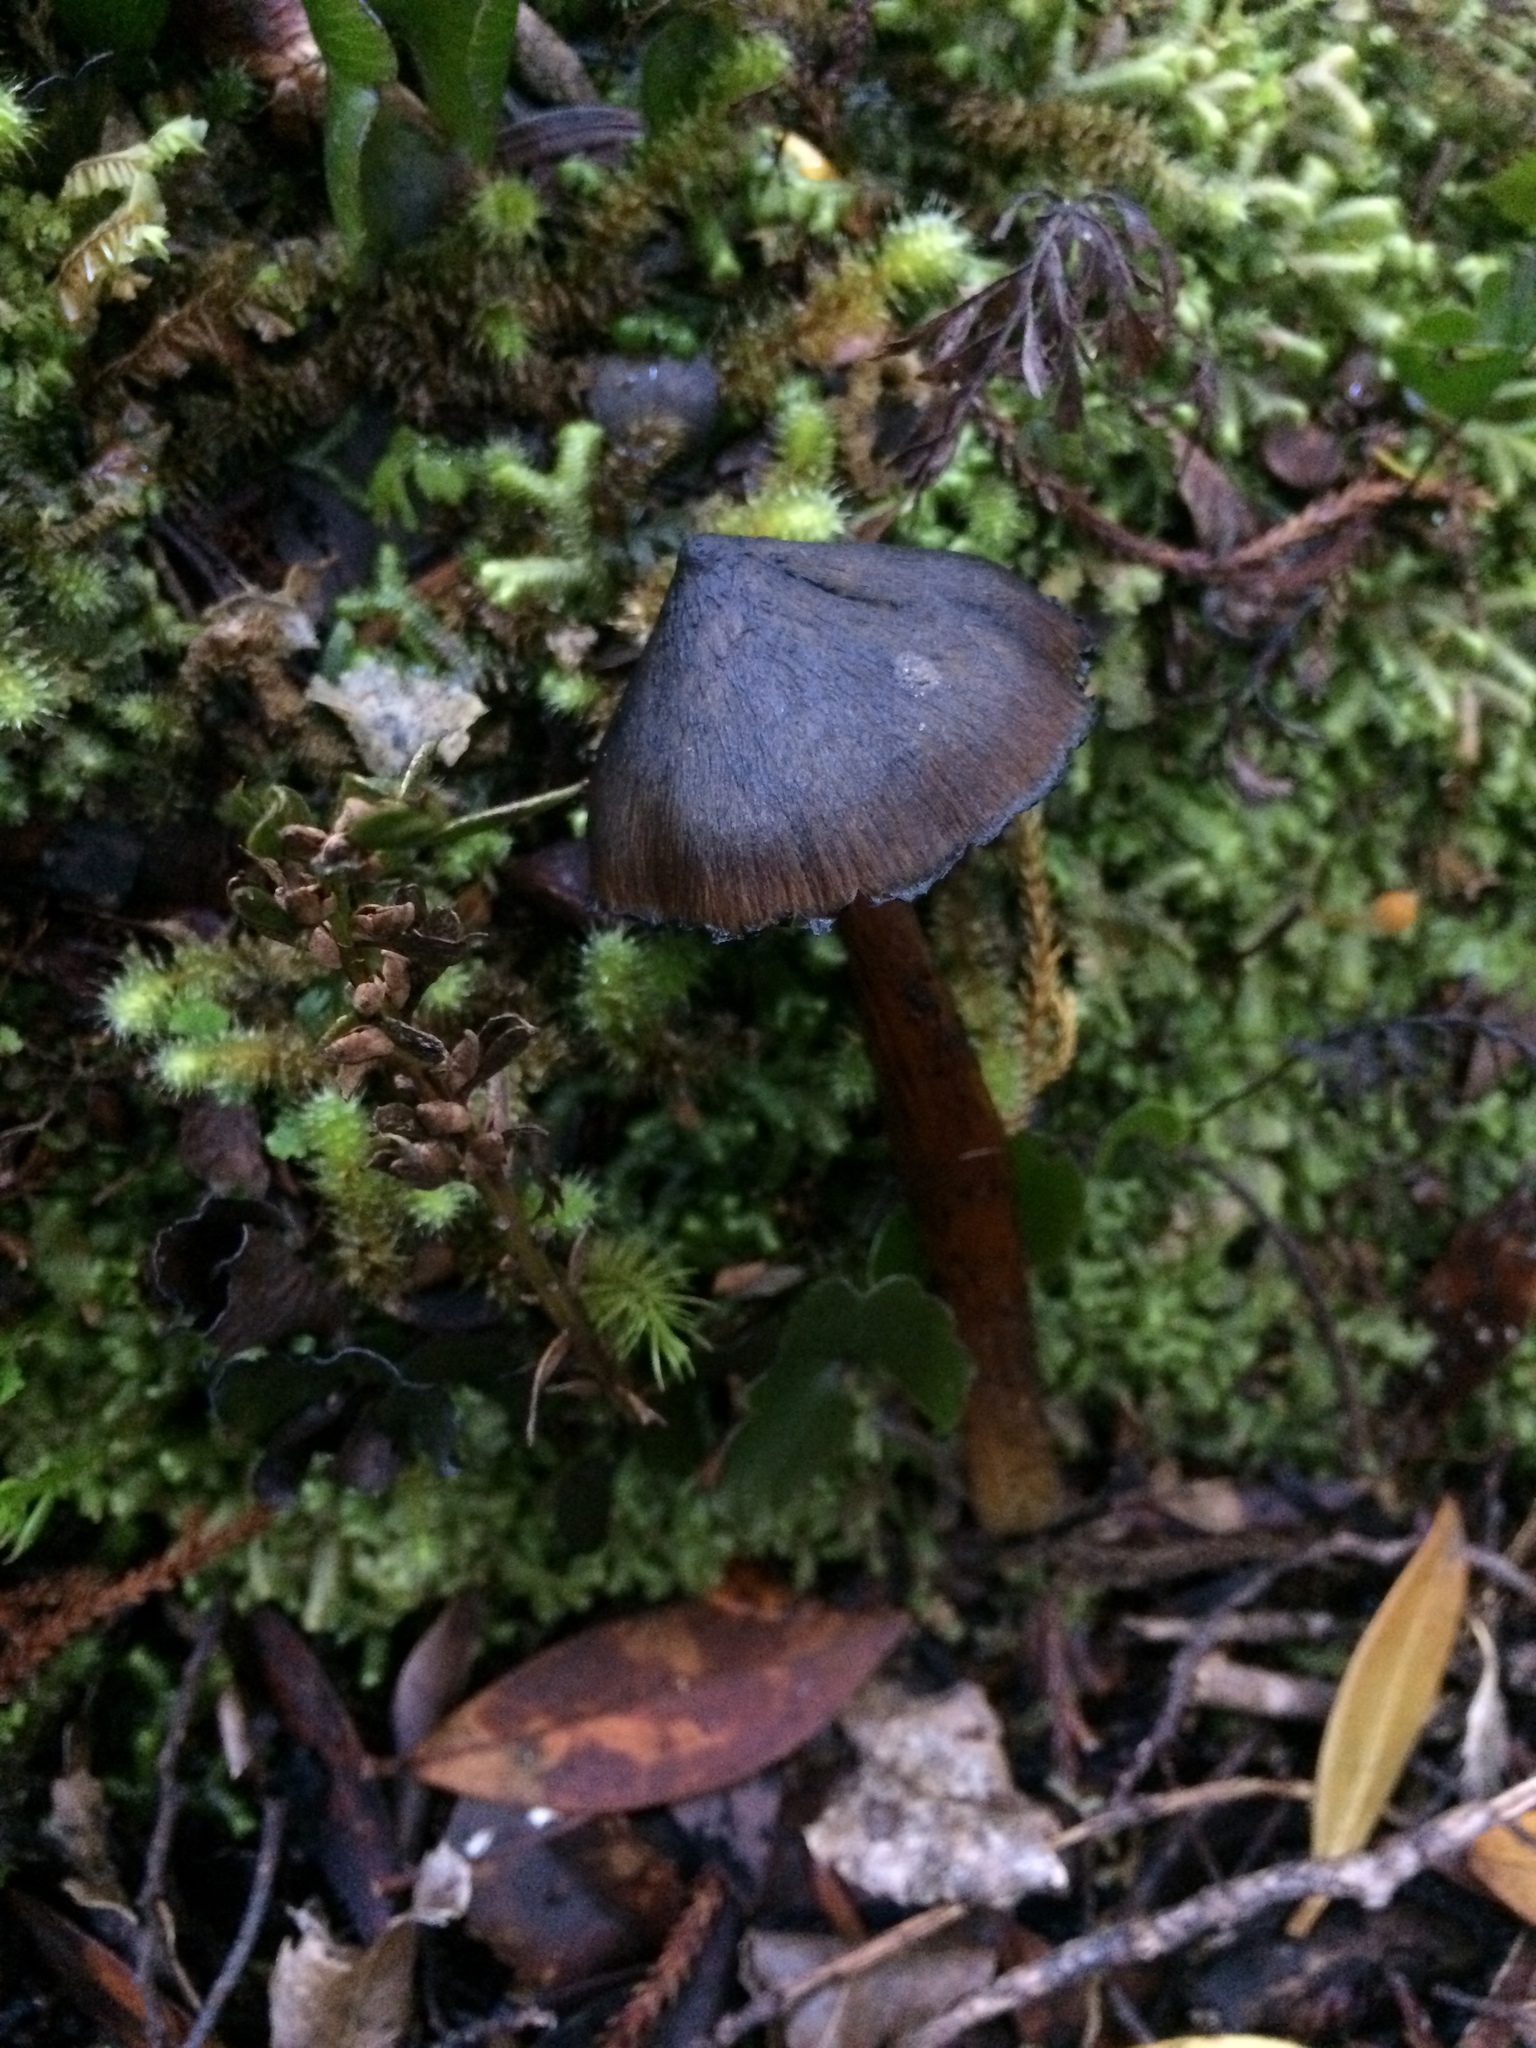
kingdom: Fungi
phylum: Basidiomycota
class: Agaricomycetes
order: Agaricales
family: Hygrophoraceae
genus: Hygrocybe
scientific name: Hygrocybe astatogala
